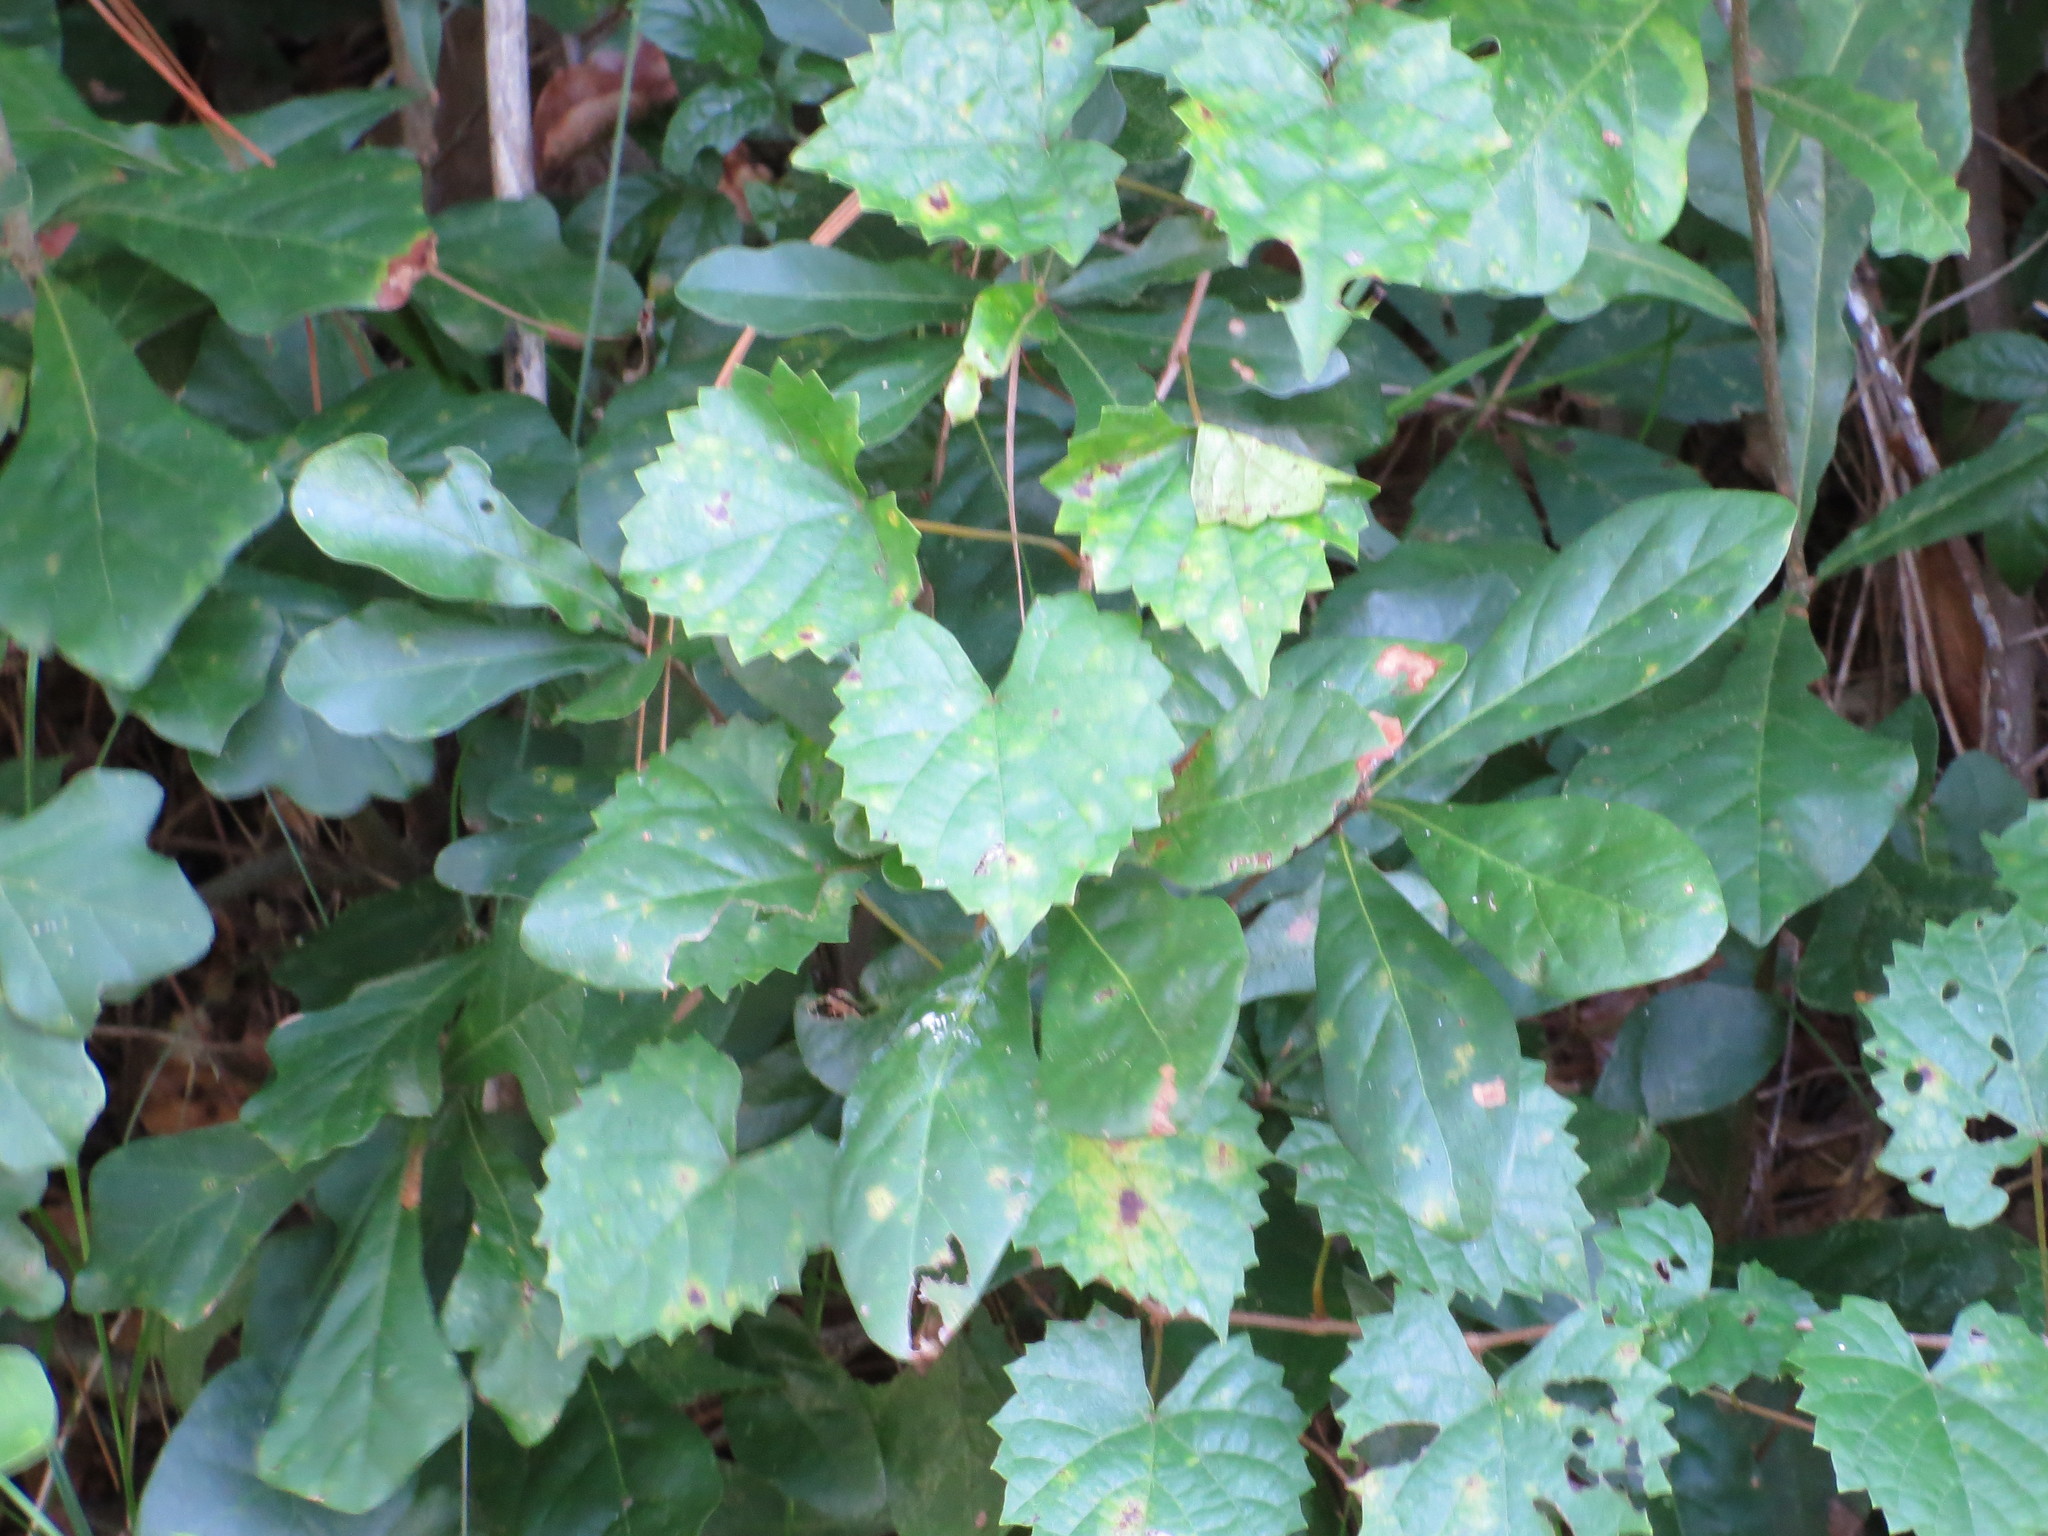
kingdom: Plantae
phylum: Tracheophyta
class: Magnoliopsida
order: Vitales
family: Vitaceae
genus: Vitis
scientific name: Vitis rotundifolia
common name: Muscadine grape
